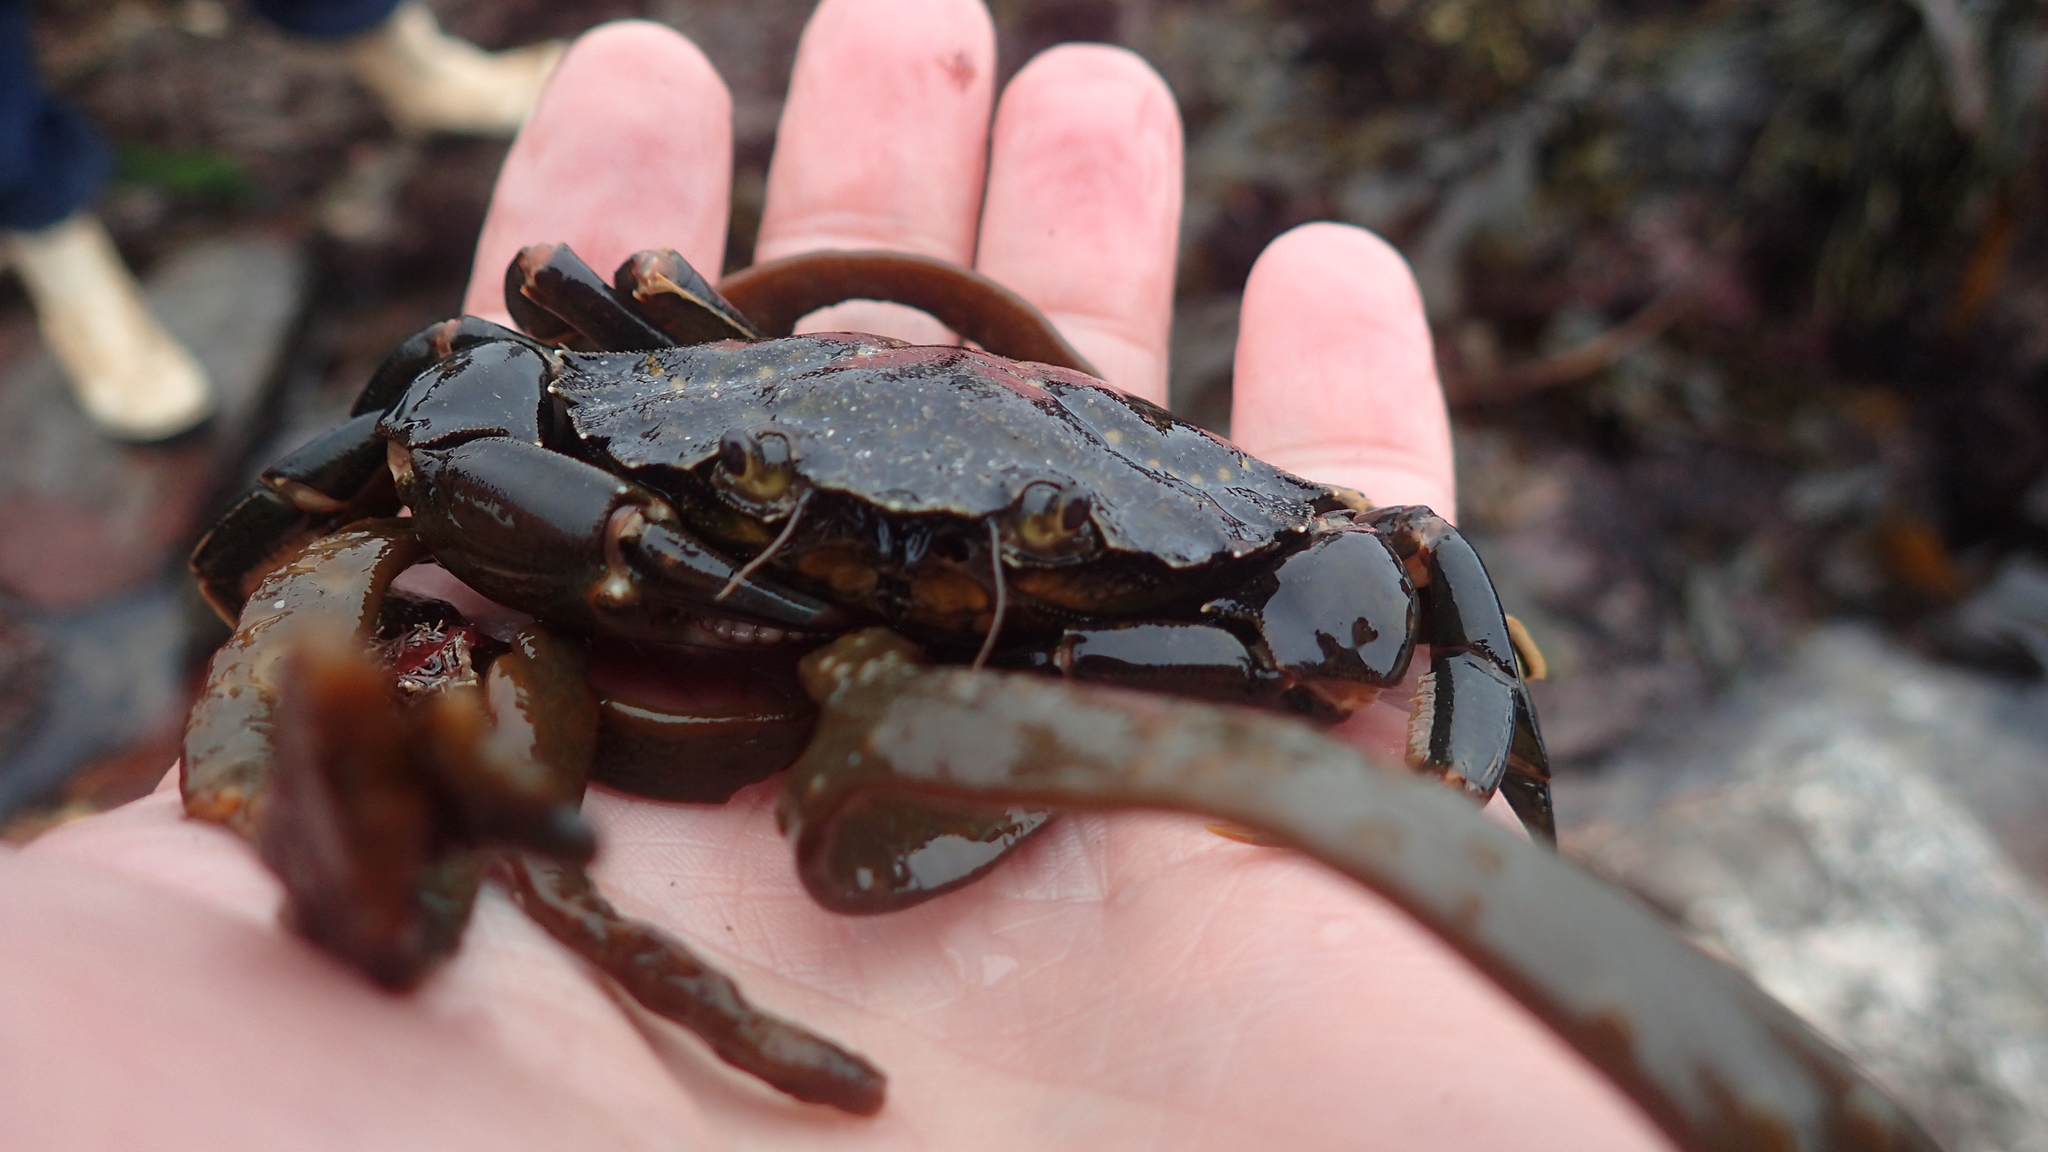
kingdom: Animalia
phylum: Arthropoda
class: Malacostraca
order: Decapoda
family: Carcinidae
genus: Carcinus
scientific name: Carcinus maenas
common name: European green crab
